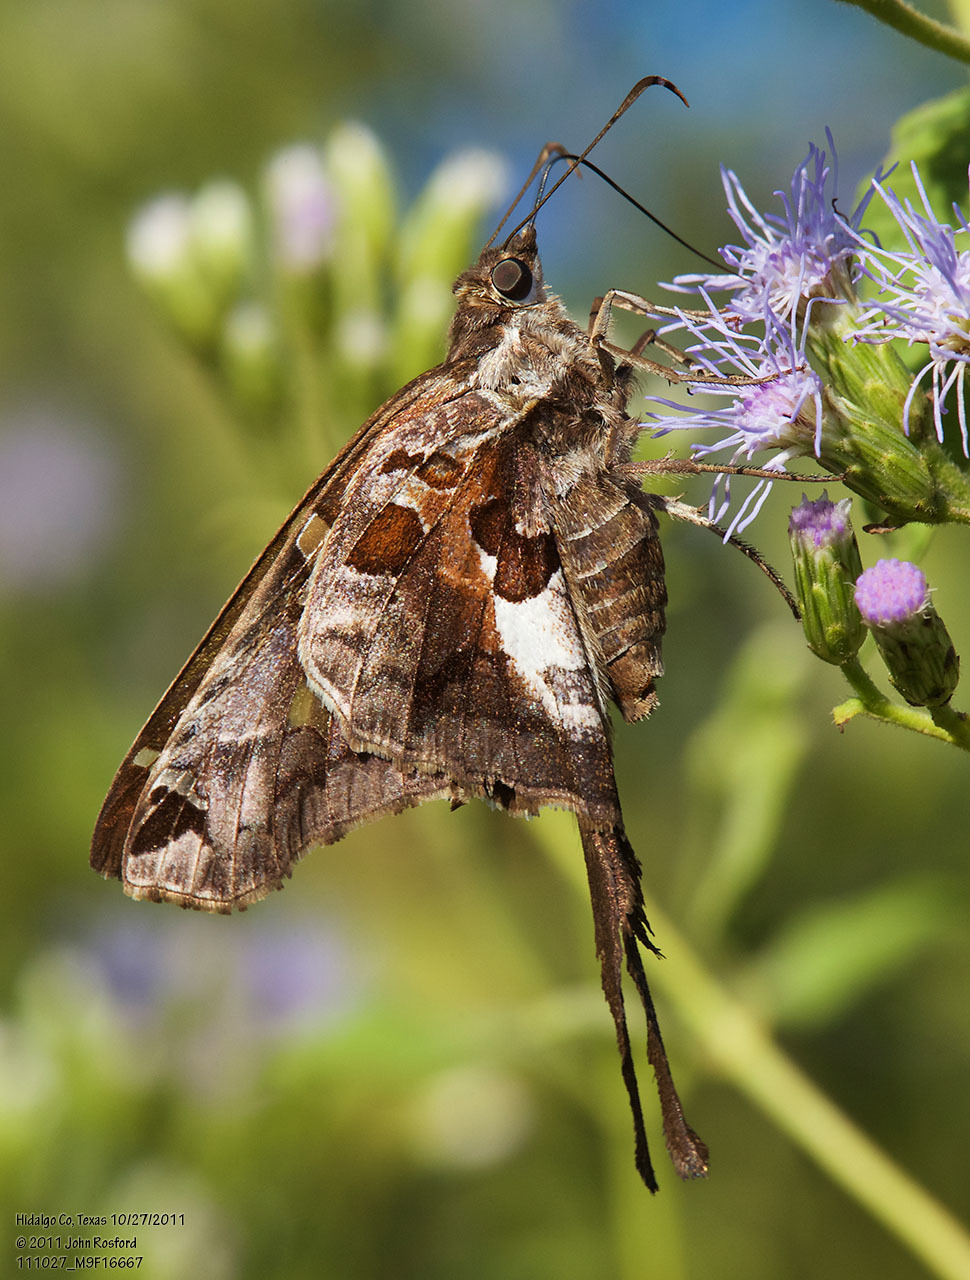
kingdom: Animalia
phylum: Arthropoda
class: Insecta
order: Lepidoptera
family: Hesperiidae
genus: Chioides
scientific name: Chioides zilpa
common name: Zilpa longtail
